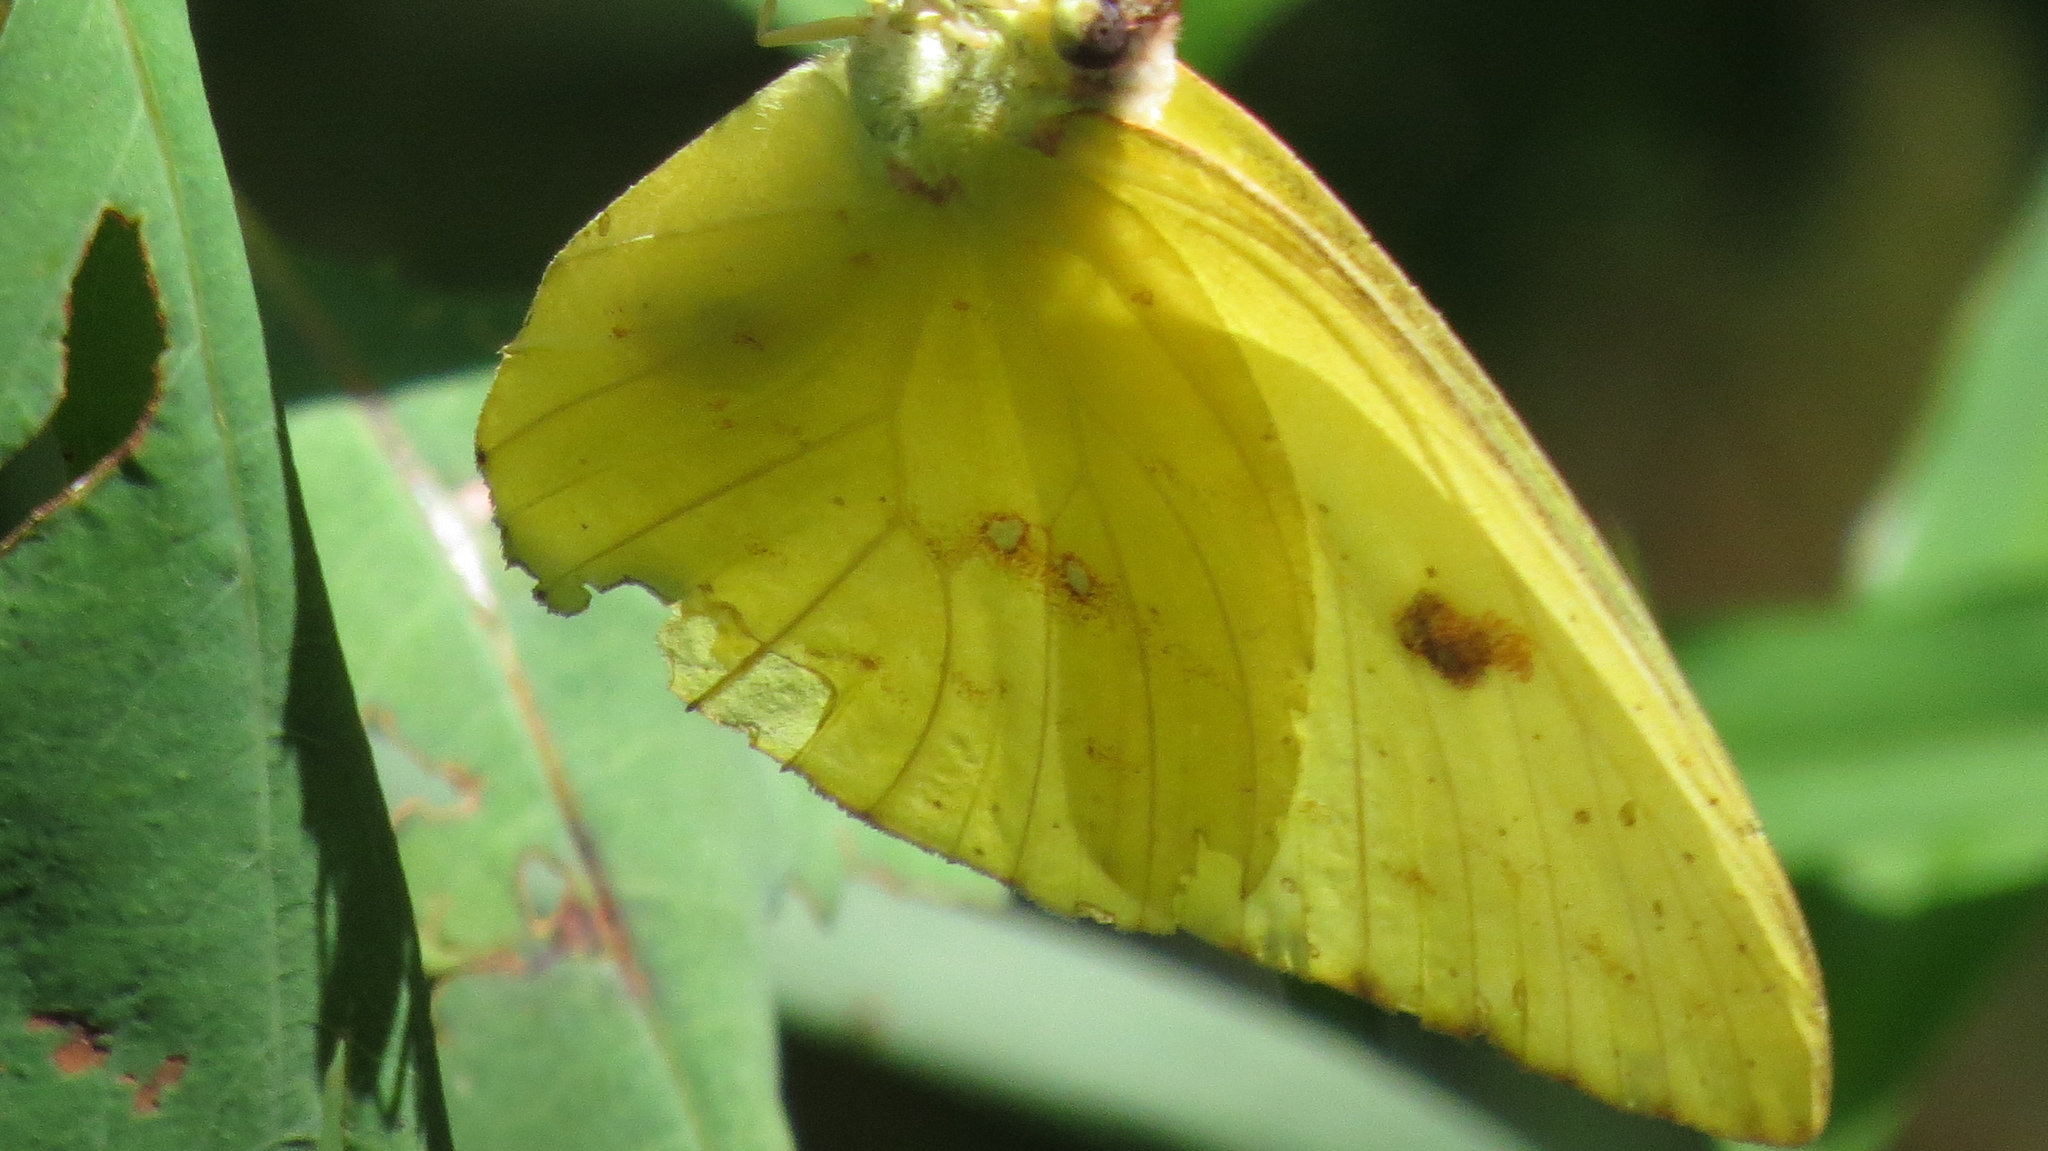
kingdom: Animalia
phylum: Arthropoda
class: Insecta
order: Lepidoptera
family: Pieridae
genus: Phoebis
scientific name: Phoebis sennae
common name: Cloudless sulphur
